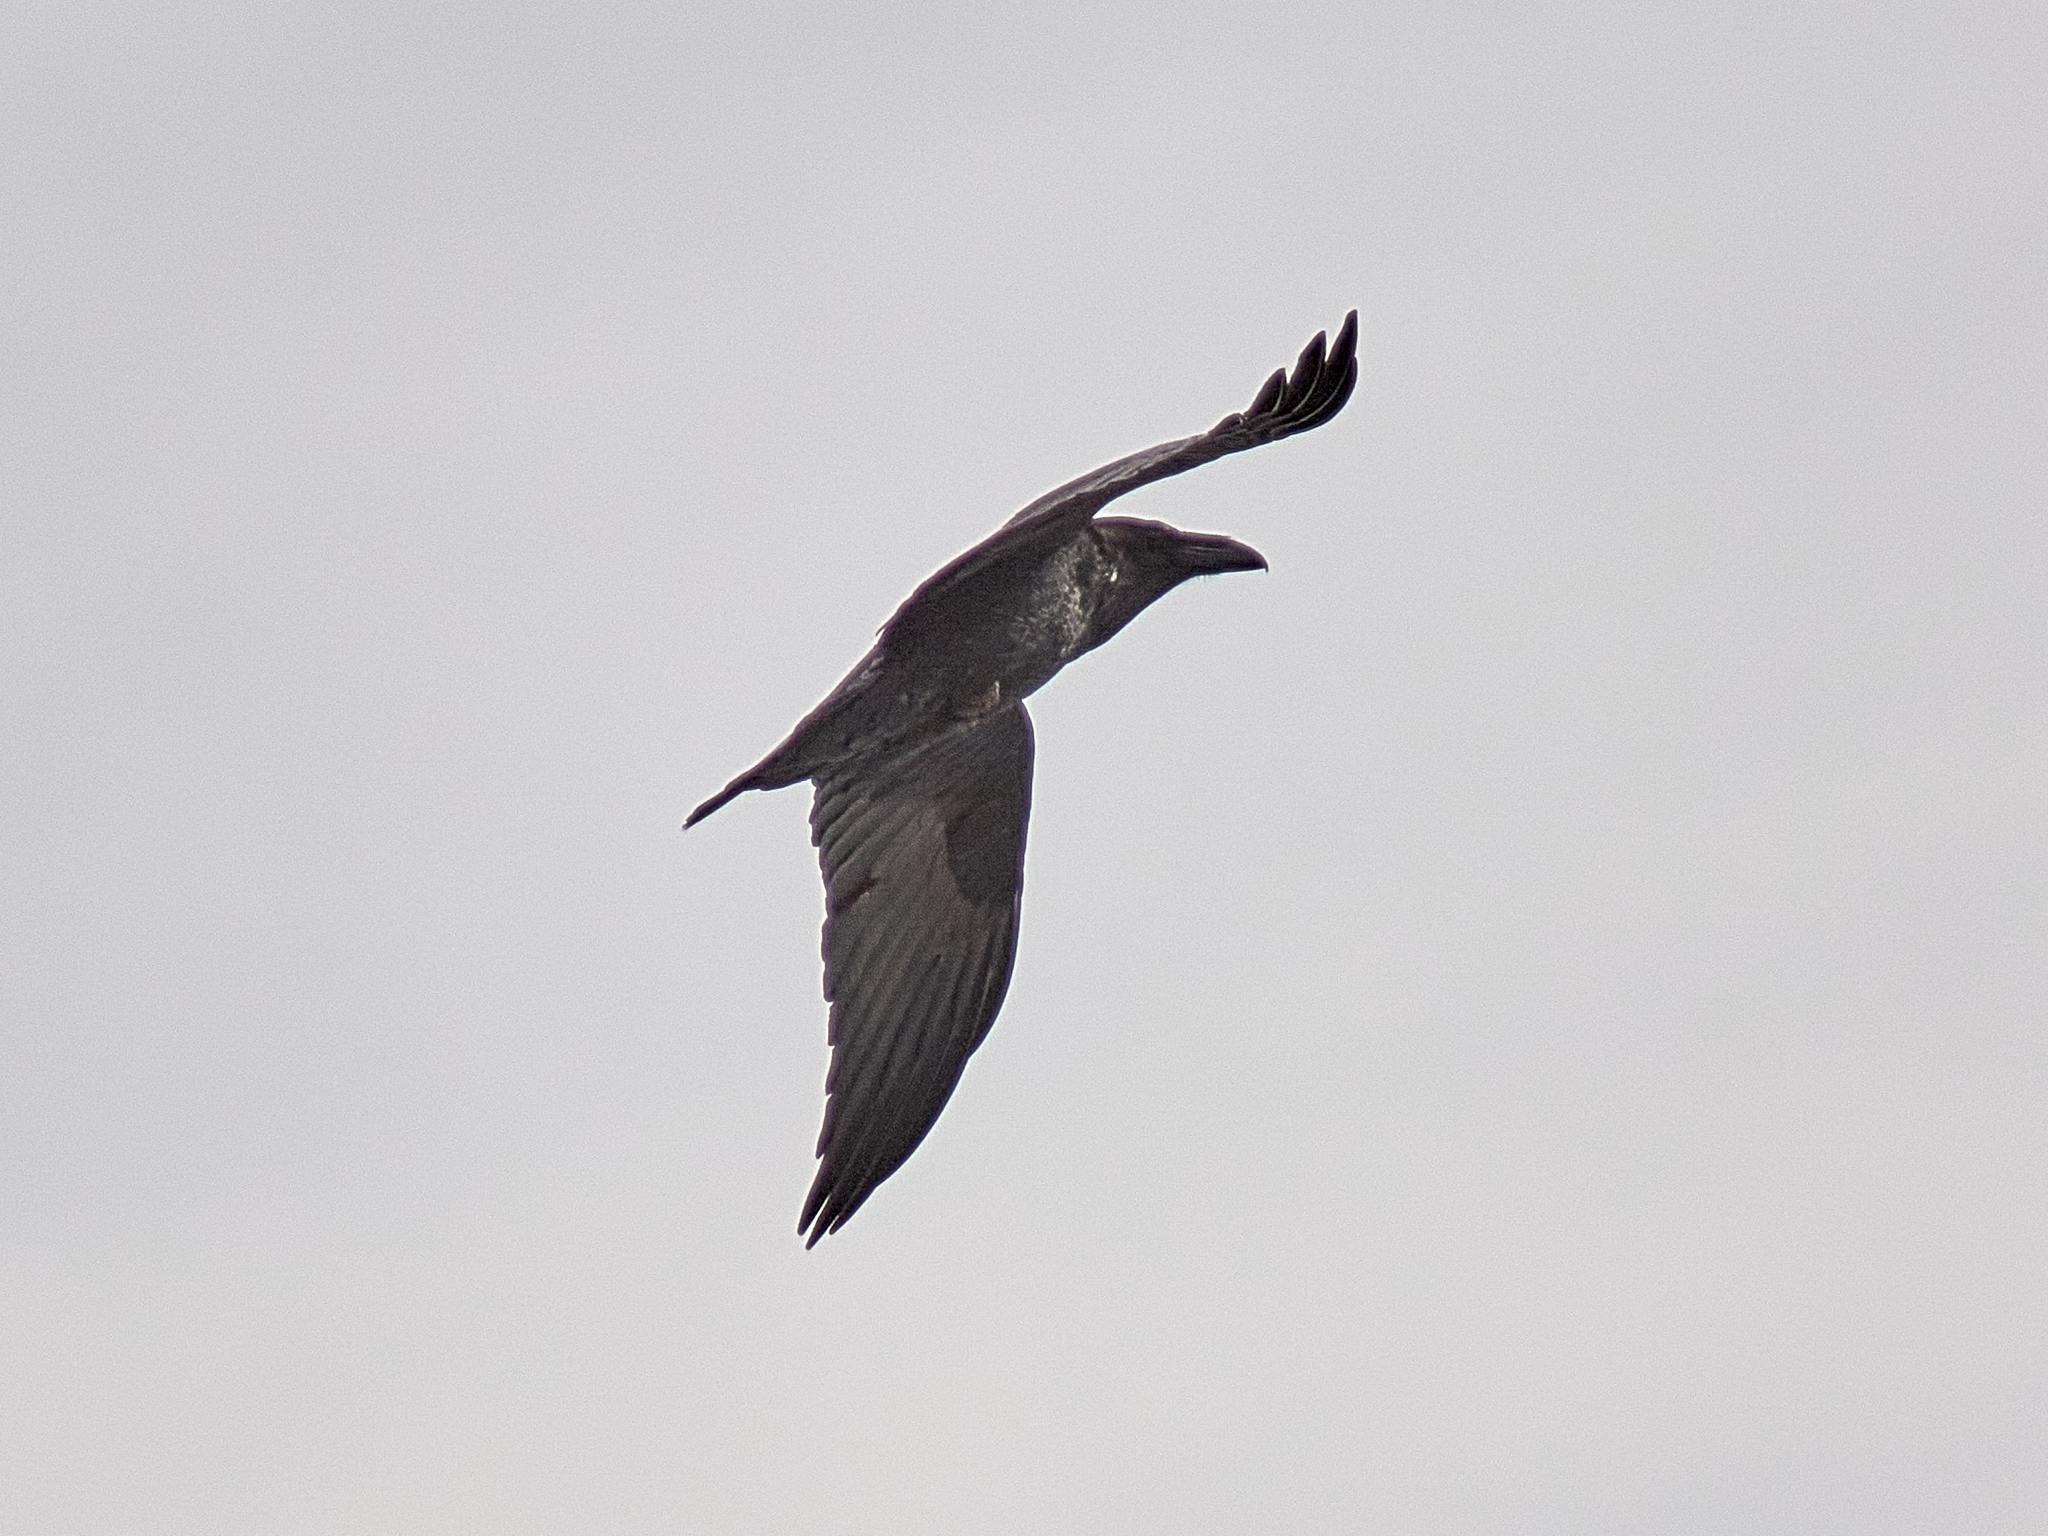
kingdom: Animalia
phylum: Chordata
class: Aves
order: Passeriformes
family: Corvidae
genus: Corvus
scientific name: Corvus corax
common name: Common raven
